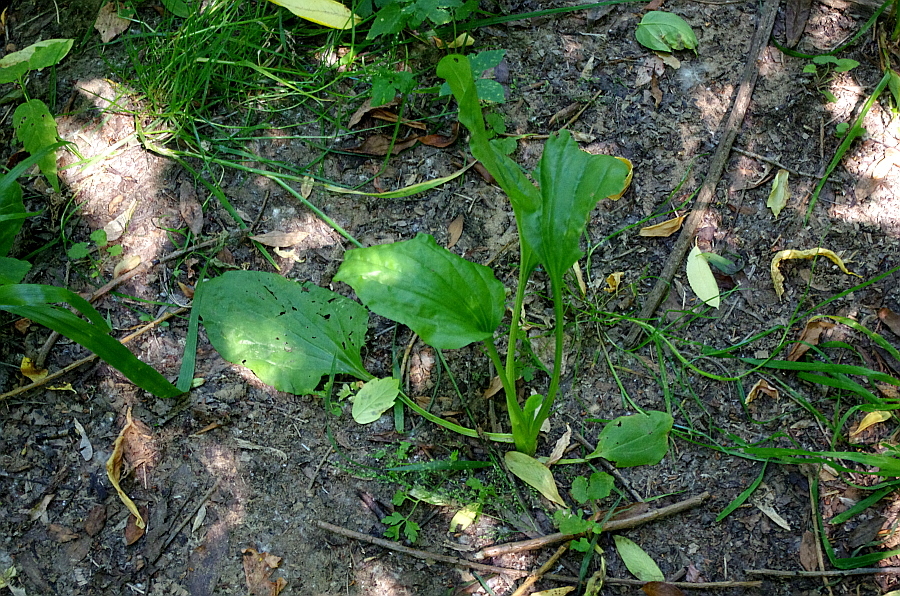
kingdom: Plantae
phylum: Tracheophyta
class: Magnoliopsida
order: Lamiales
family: Plantaginaceae
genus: Plantago
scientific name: Plantago major
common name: Common plantain
